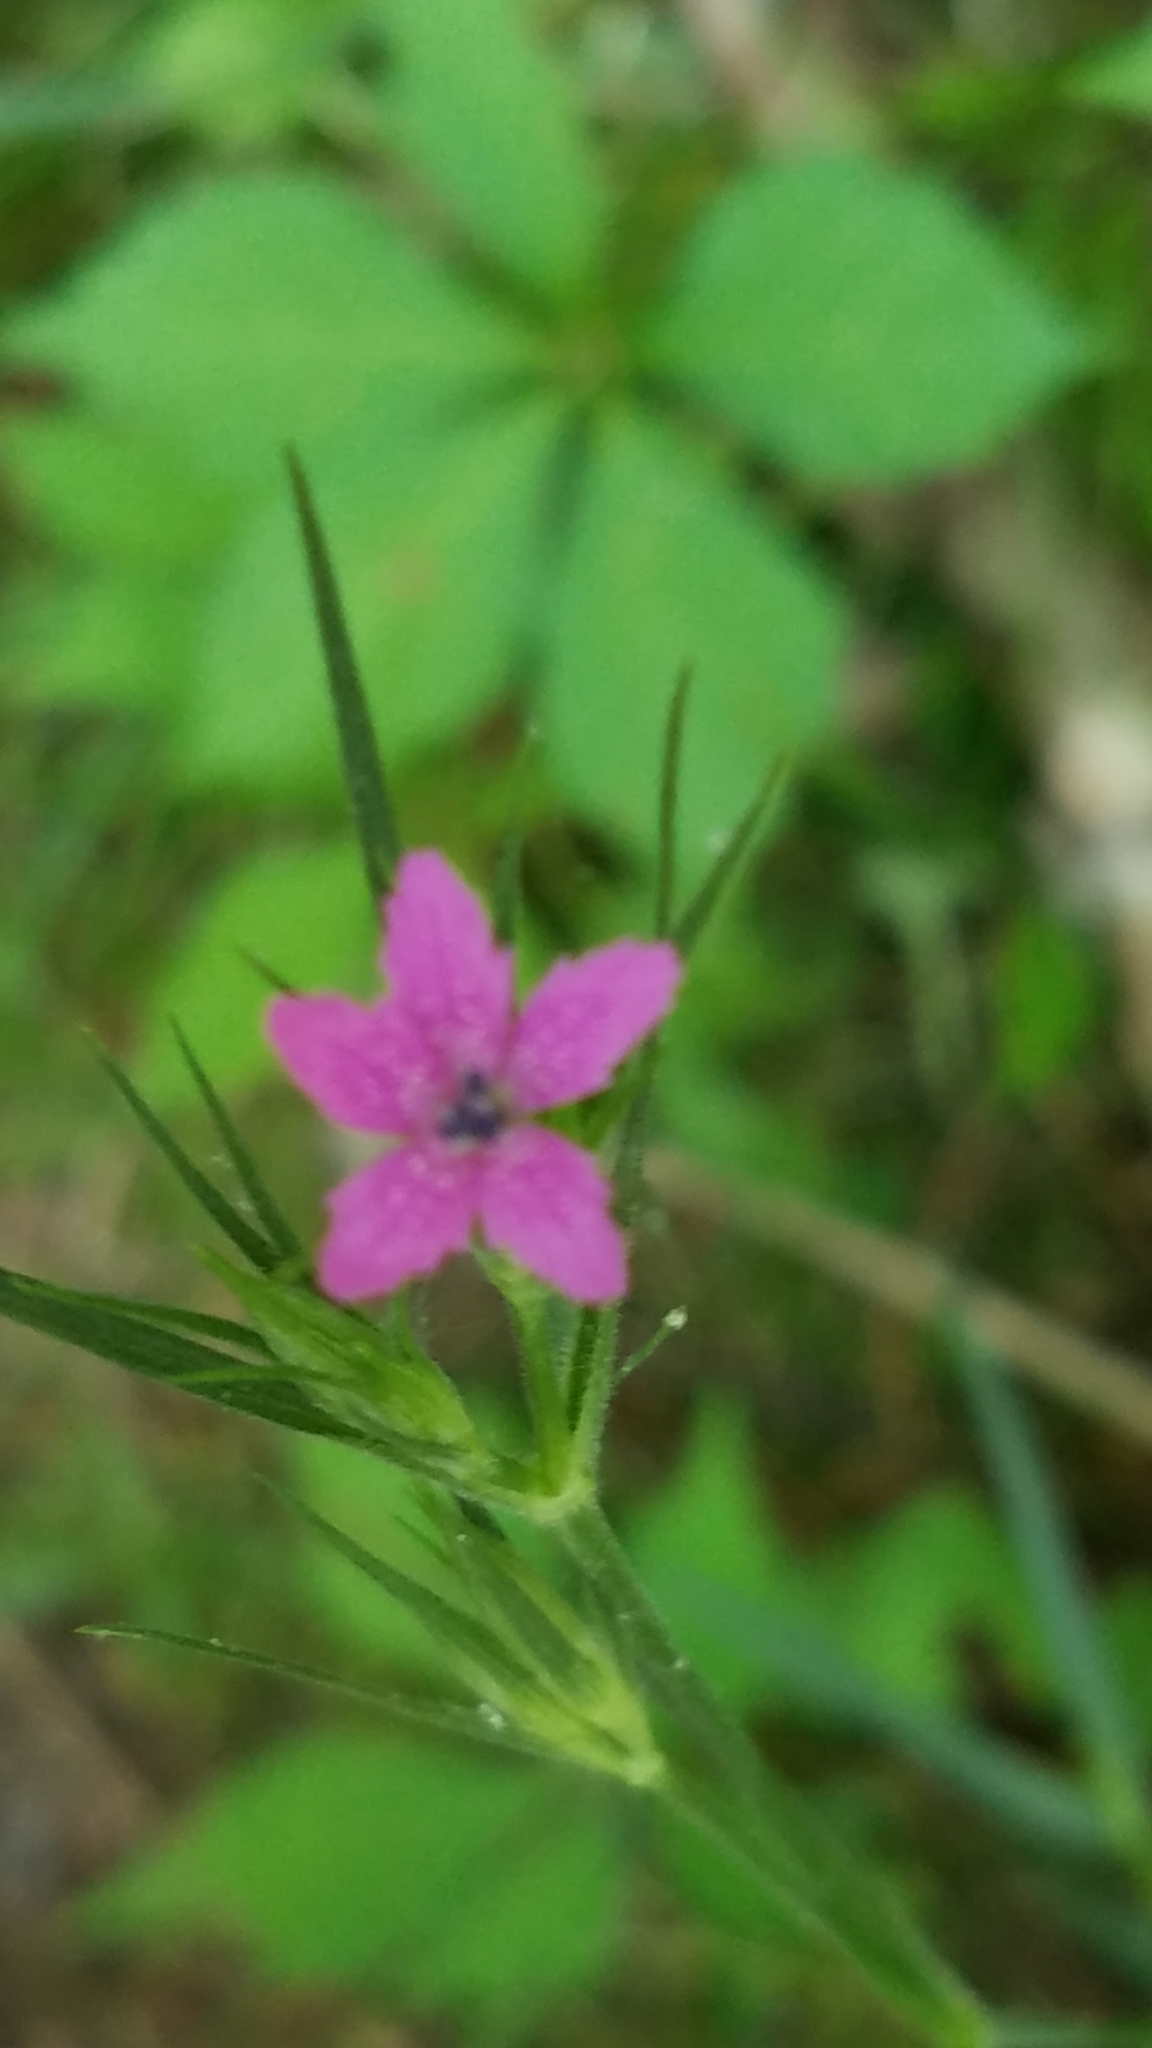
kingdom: Plantae
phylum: Tracheophyta
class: Magnoliopsida
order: Caryophyllales
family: Caryophyllaceae
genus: Dianthus
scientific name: Dianthus armeria
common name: Deptford pink
